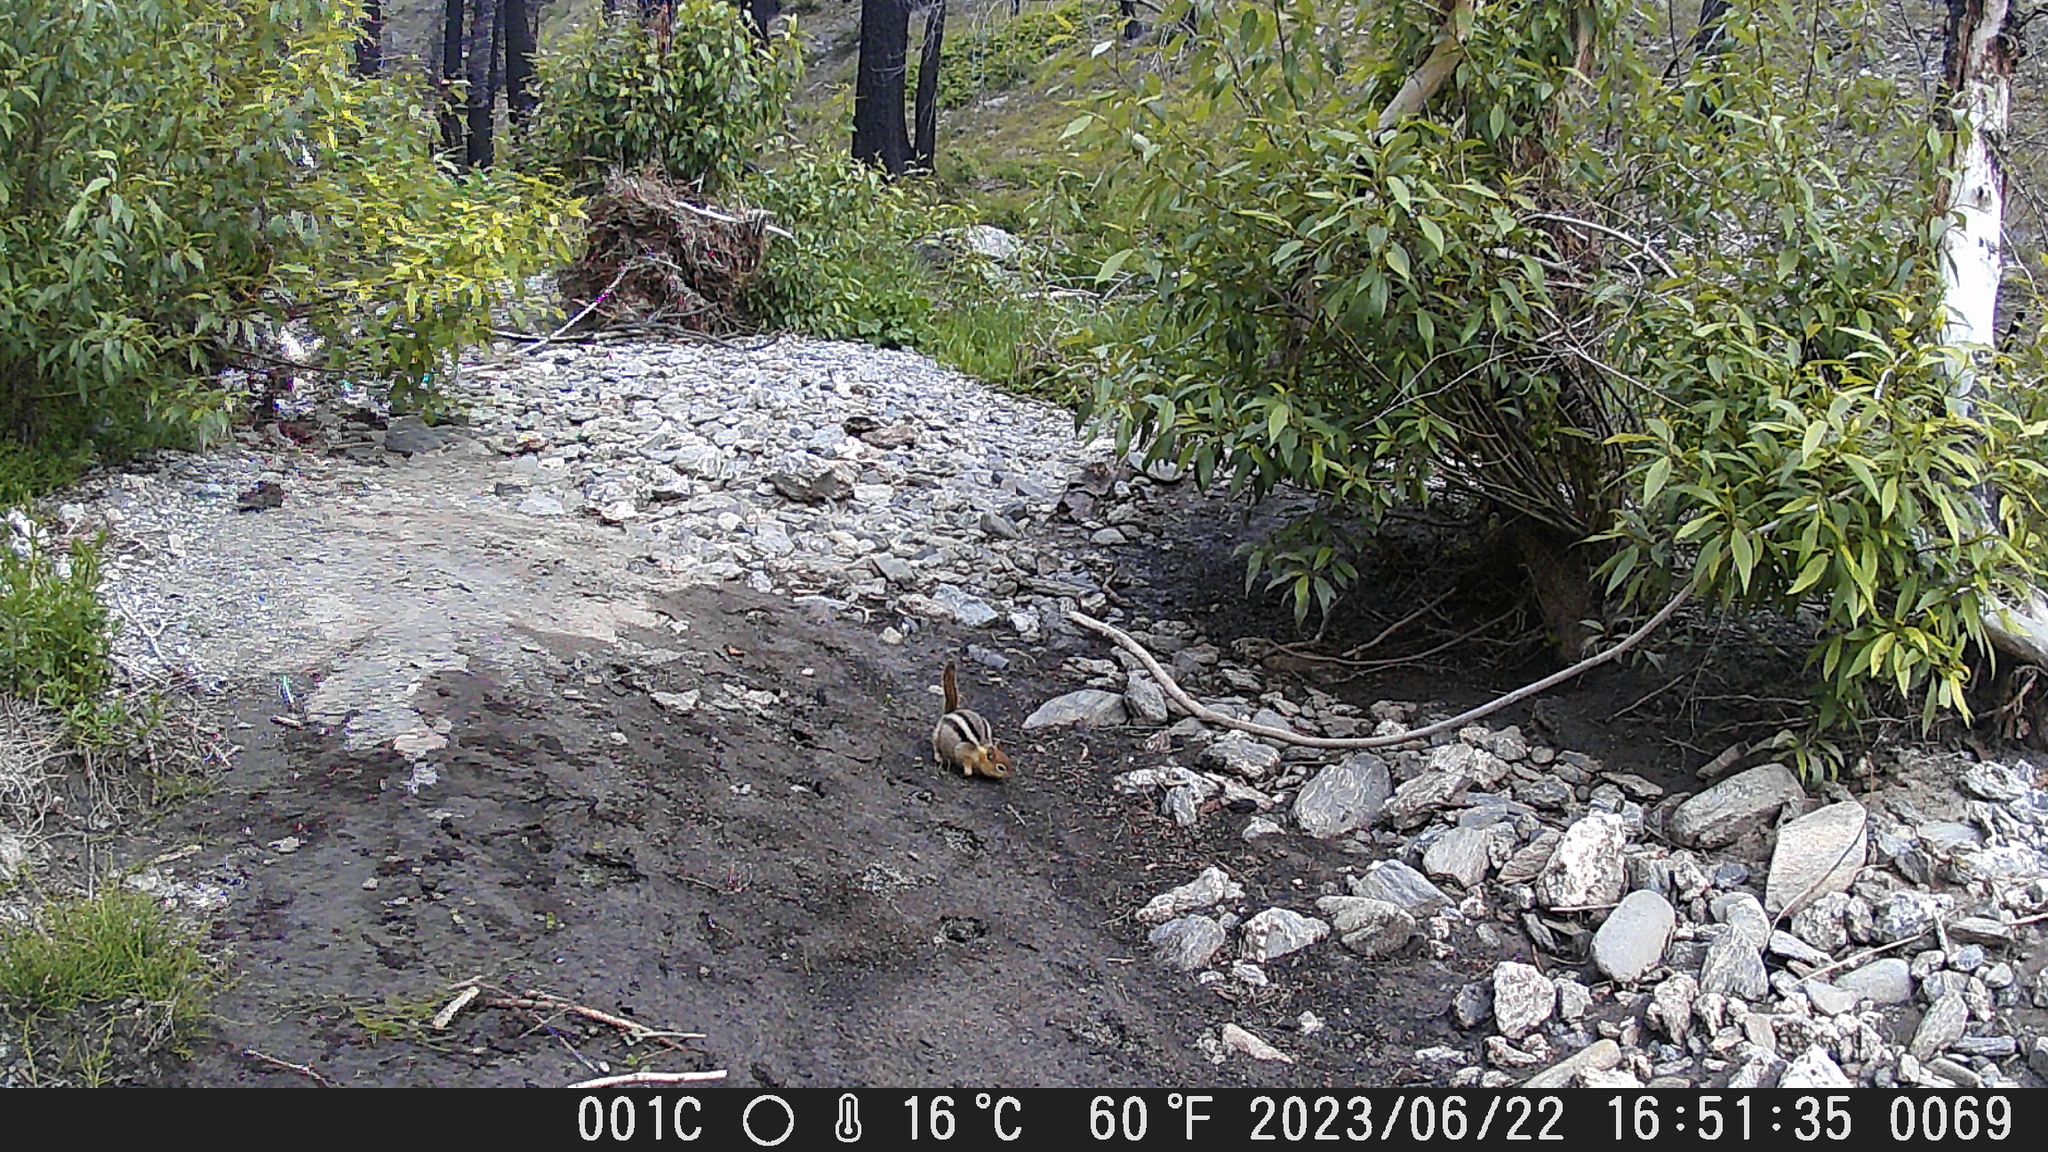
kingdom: Animalia
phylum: Chordata
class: Mammalia
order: Rodentia
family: Sciuridae
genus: Callospermophilus
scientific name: Callospermophilus lateralis
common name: Golden-mantled ground squirrel
